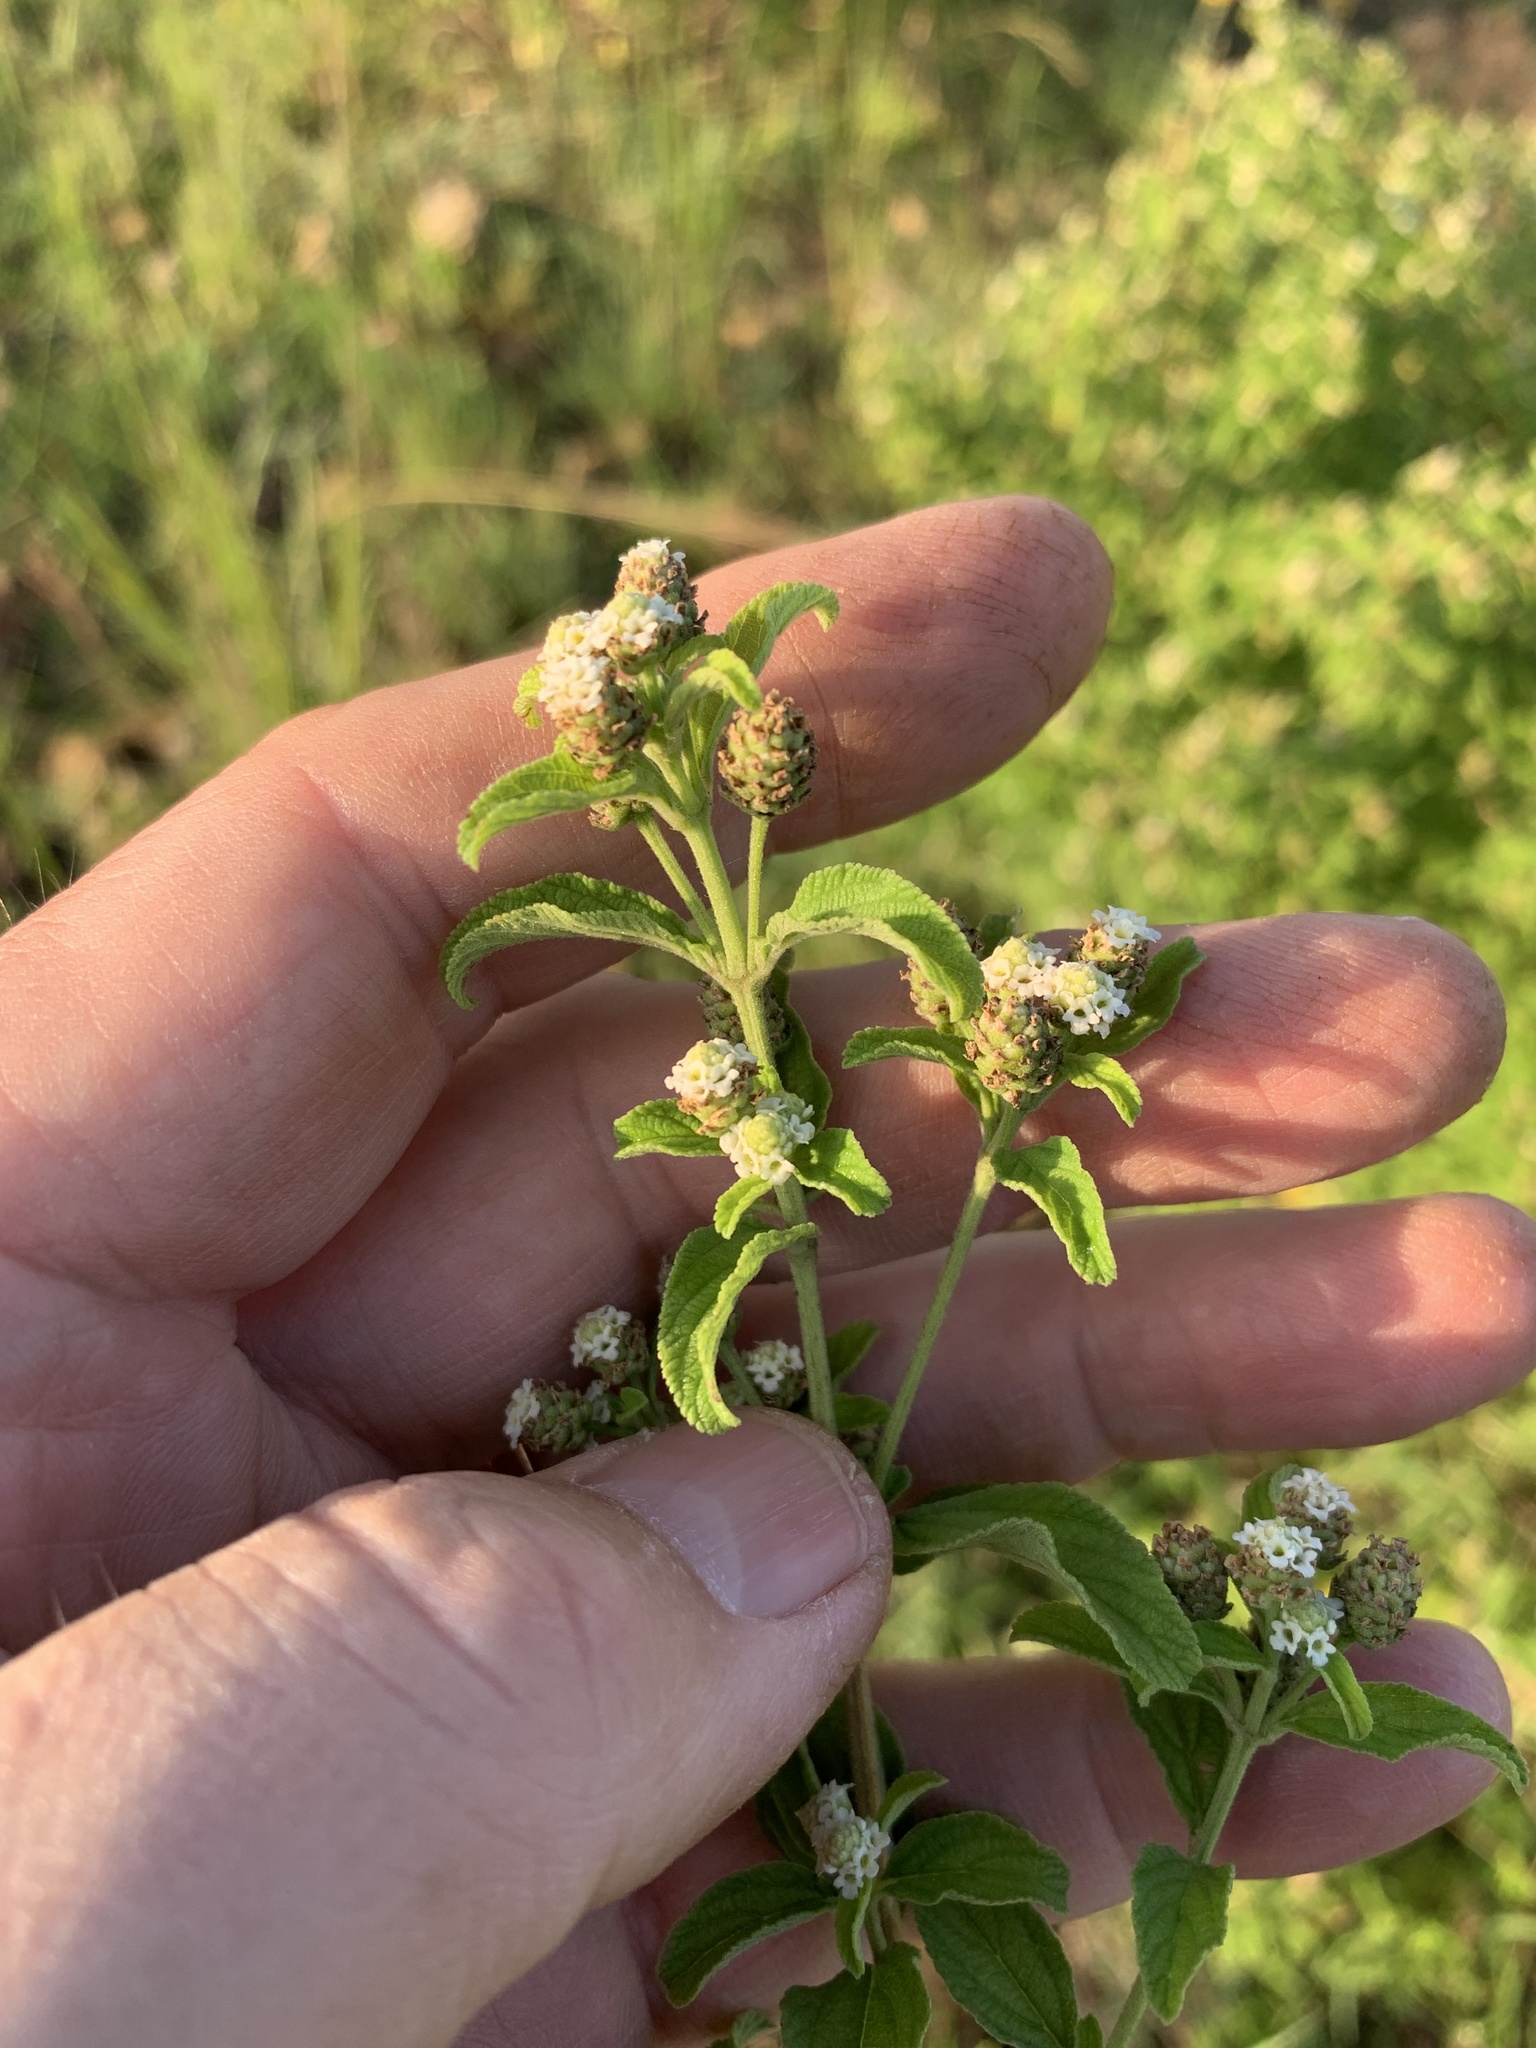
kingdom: Plantae
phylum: Tracheophyta
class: Magnoliopsida
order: Lamiales
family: Verbenaceae
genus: Lippia
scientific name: Lippia javanica
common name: Lemonbush
